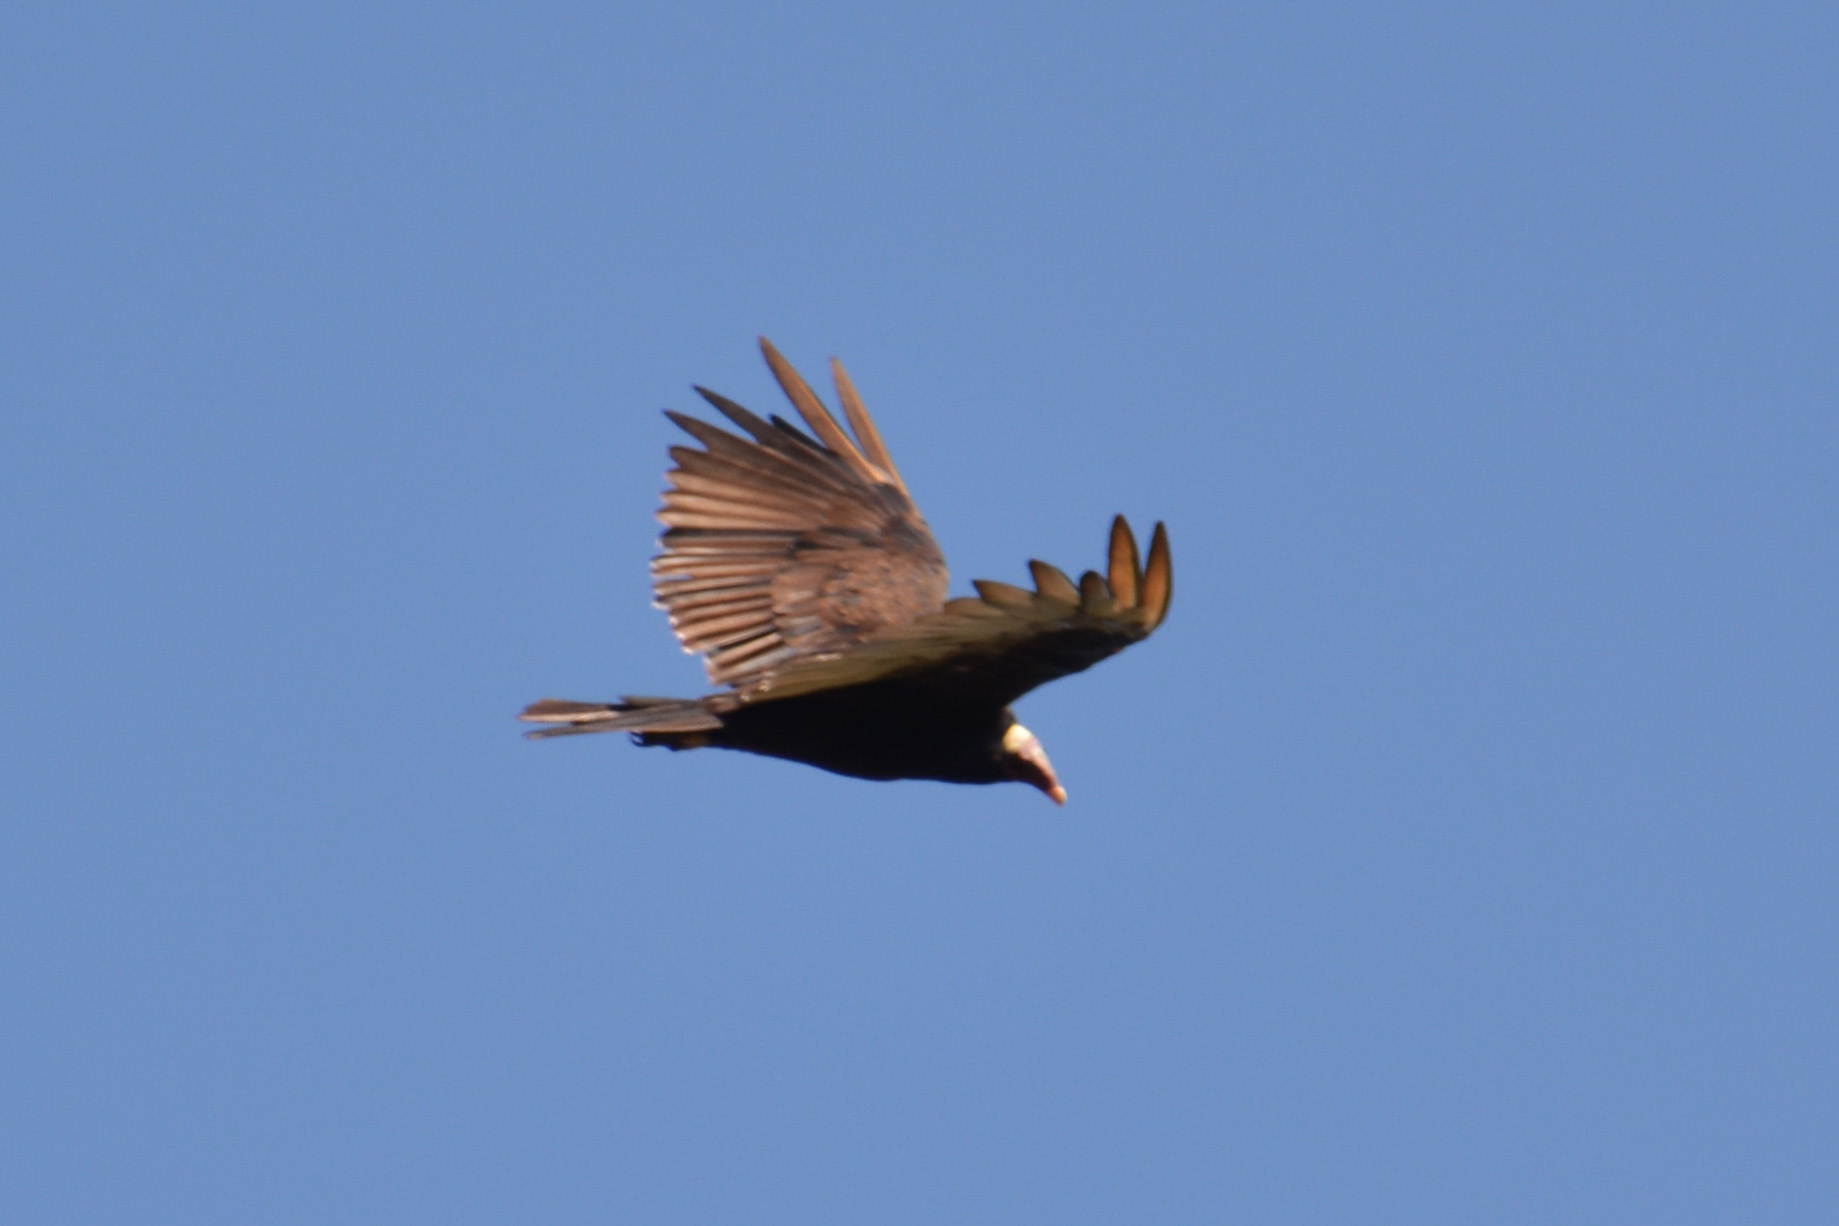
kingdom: Animalia
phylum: Chordata
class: Aves
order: Accipitriformes
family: Cathartidae
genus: Cathartes
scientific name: Cathartes aura
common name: Turkey vulture
